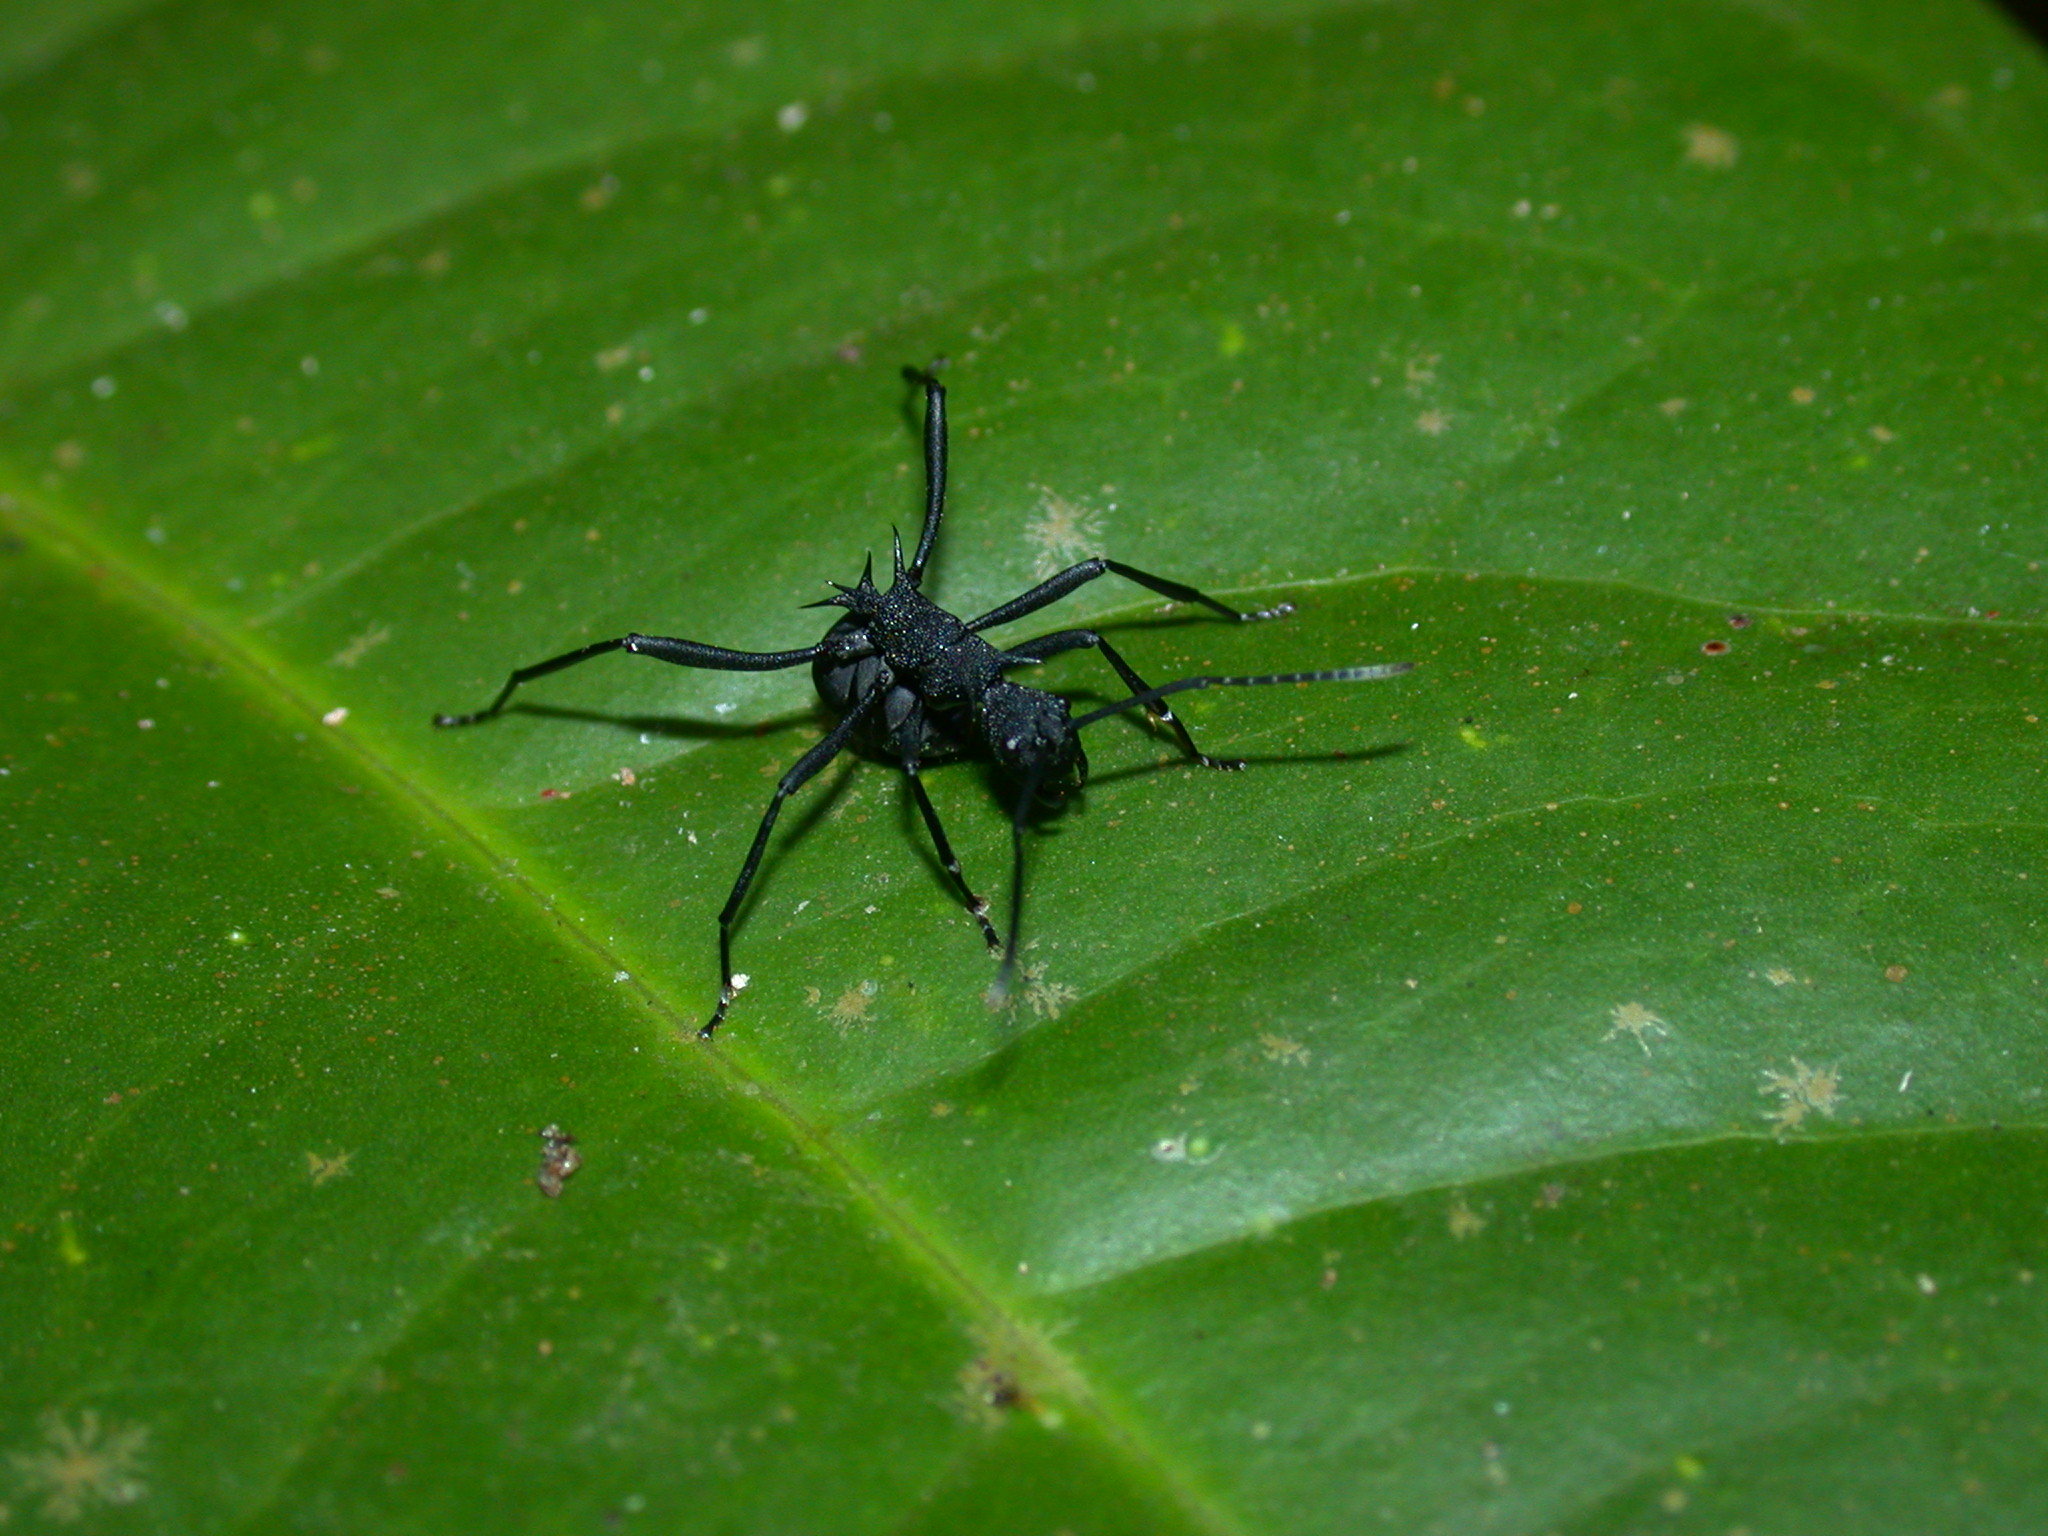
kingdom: Animalia
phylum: Arthropoda
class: Insecta
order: Hymenoptera
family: Formicidae
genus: Polyrhachis
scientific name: Polyrhachis armata
